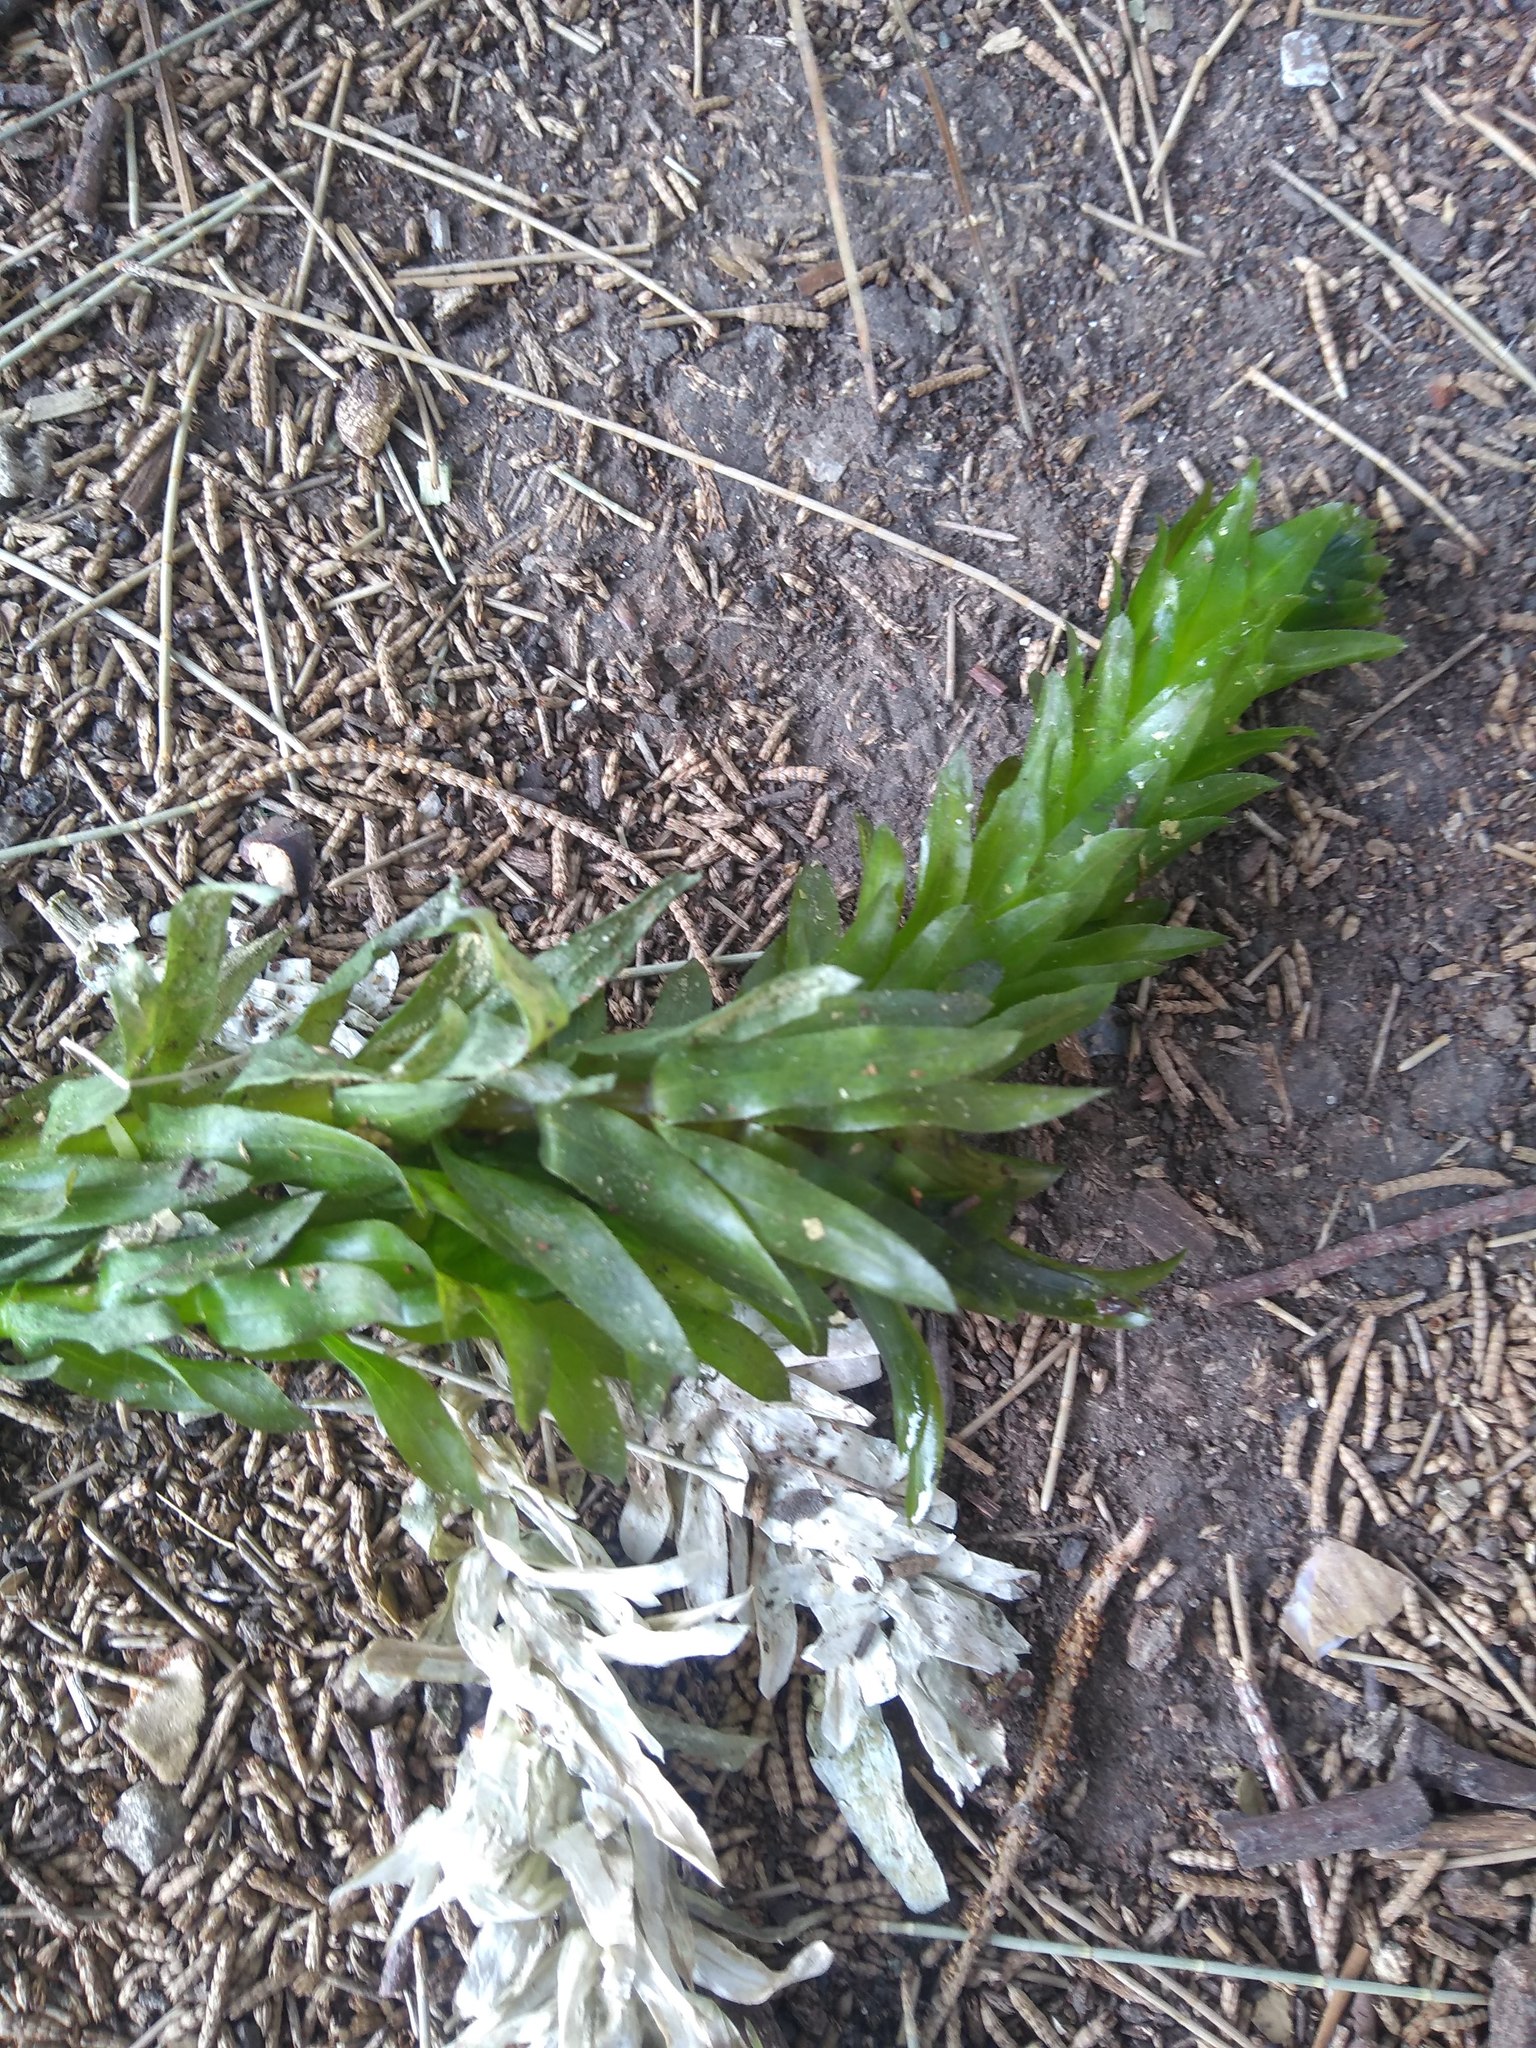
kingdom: Plantae
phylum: Tracheophyta
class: Liliopsida
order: Alismatales
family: Hydrocharitaceae
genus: Elodea
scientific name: Elodea densa
